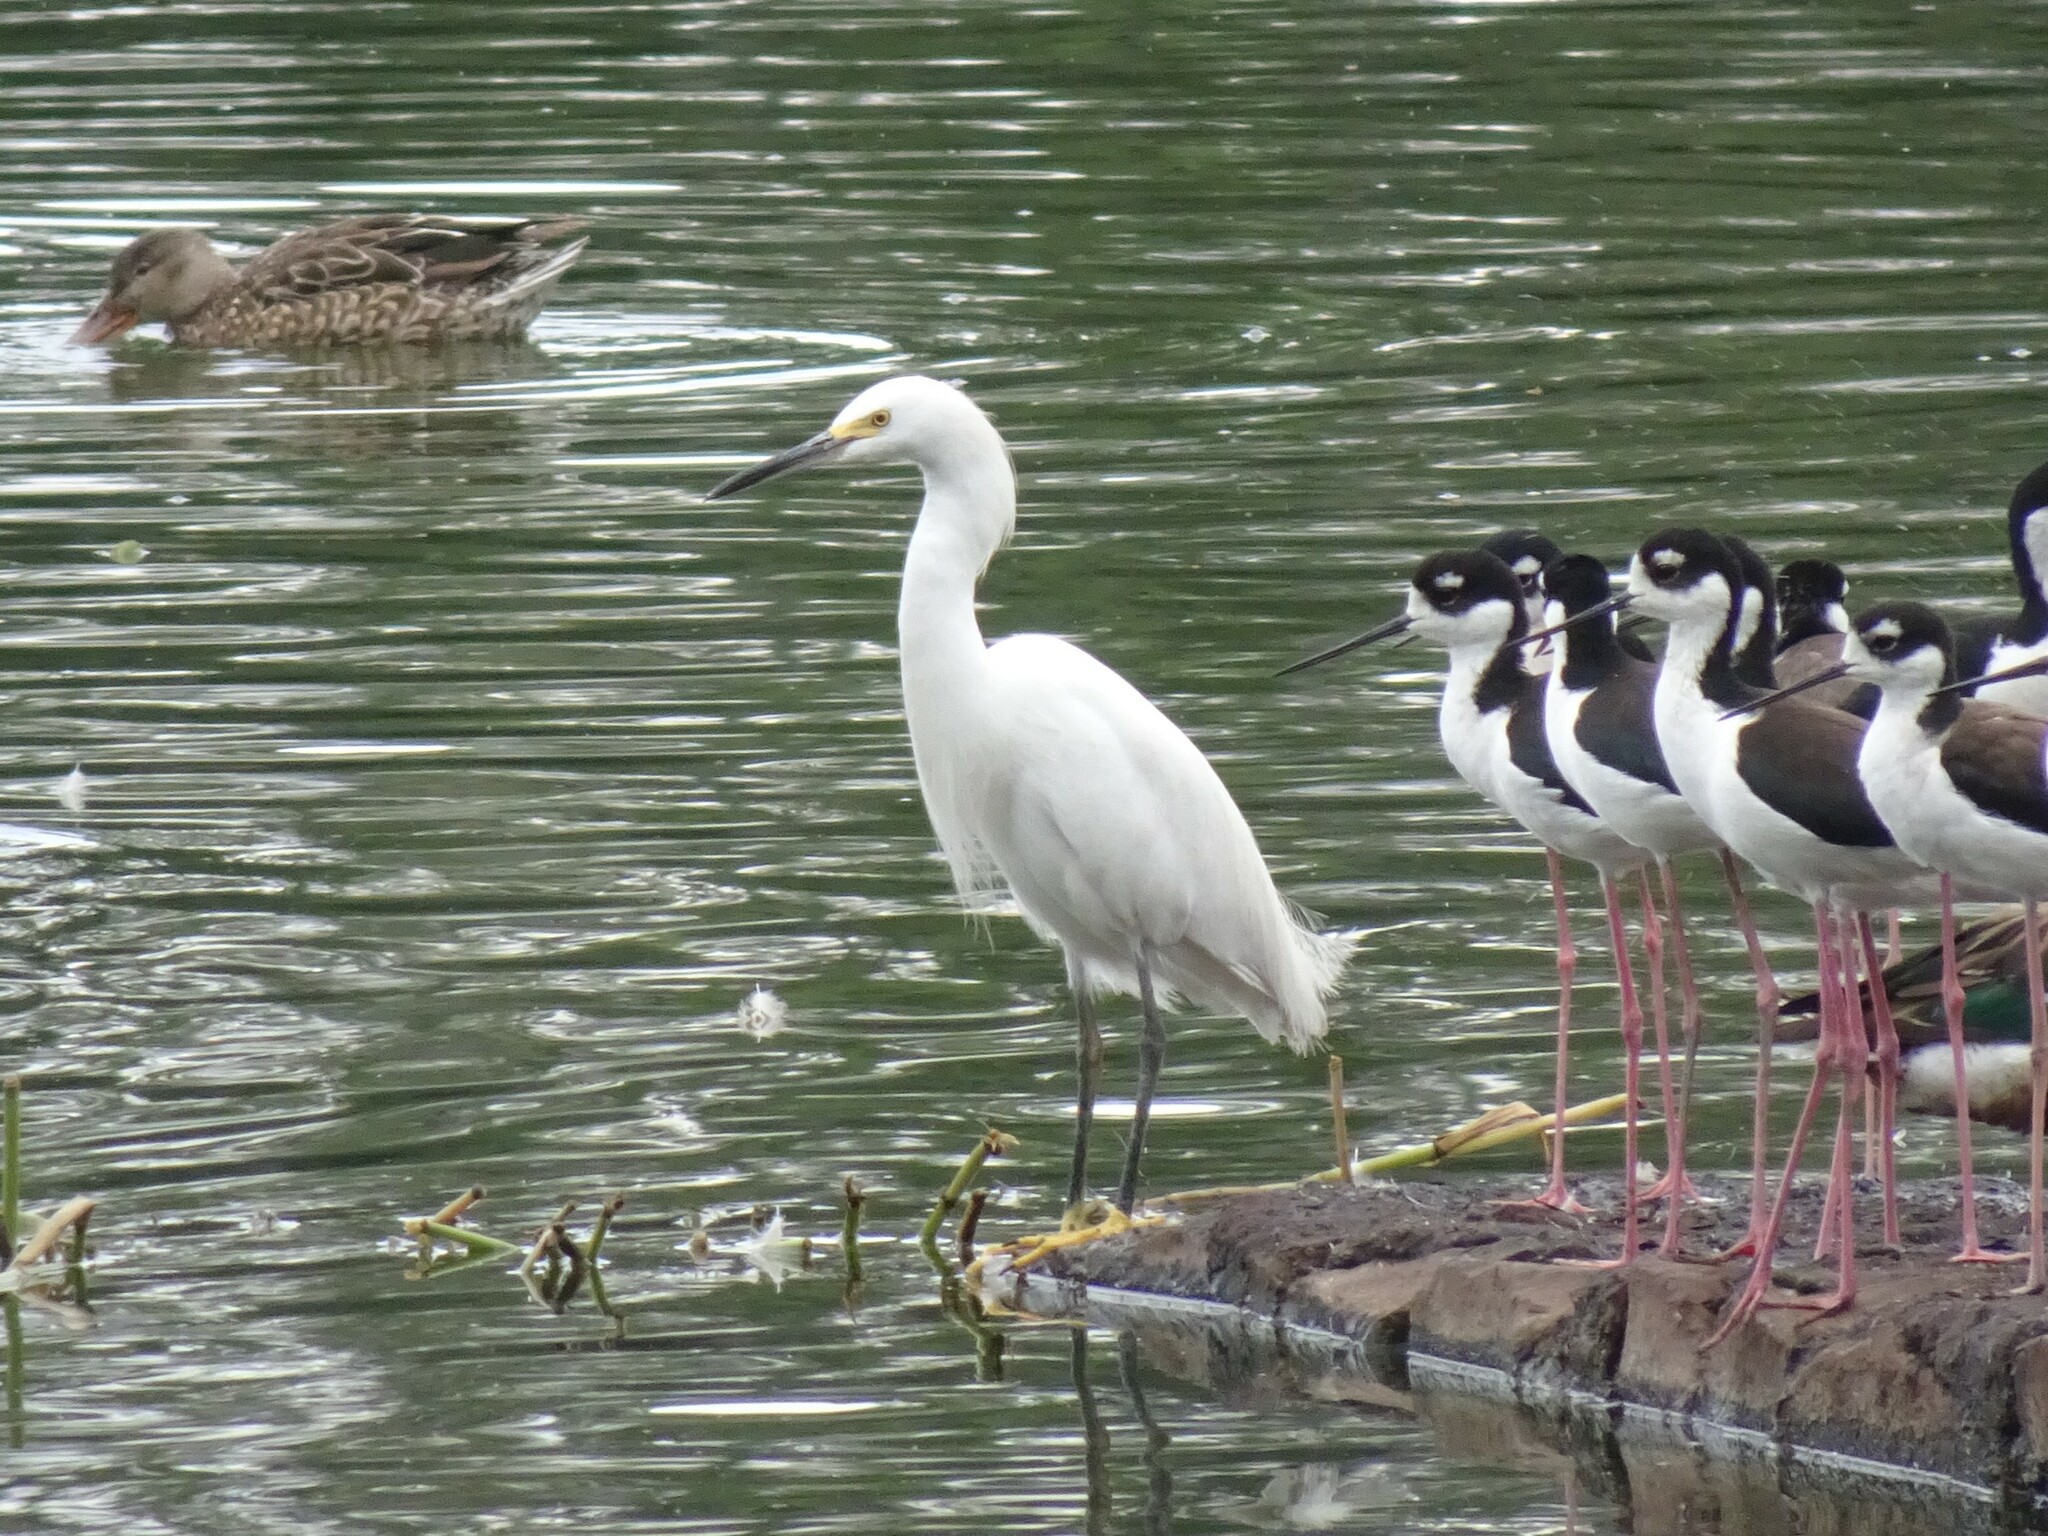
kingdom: Animalia
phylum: Chordata
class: Aves
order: Pelecaniformes
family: Ardeidae
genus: Egretta
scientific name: Egretta thula
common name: Snowy egret
